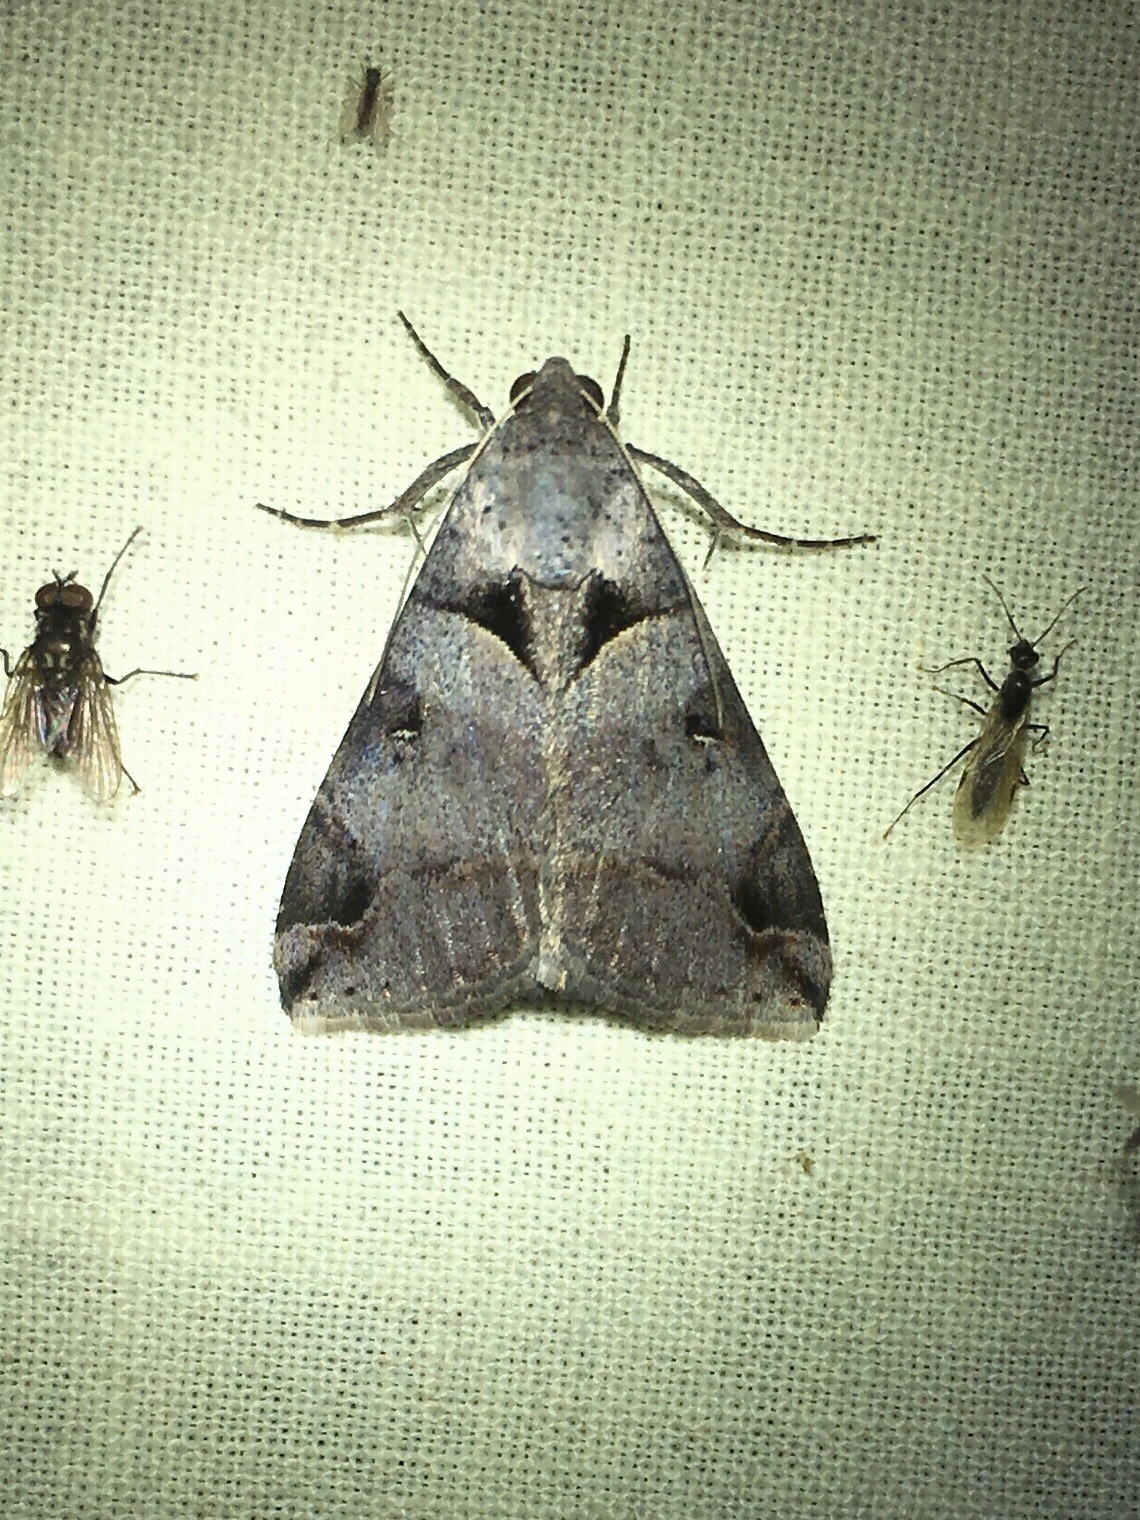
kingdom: Animalia
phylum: Arthropoda
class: Insecta
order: Lepidoptera
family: Erebidae
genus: Melipotis
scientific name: Melipotis florida
